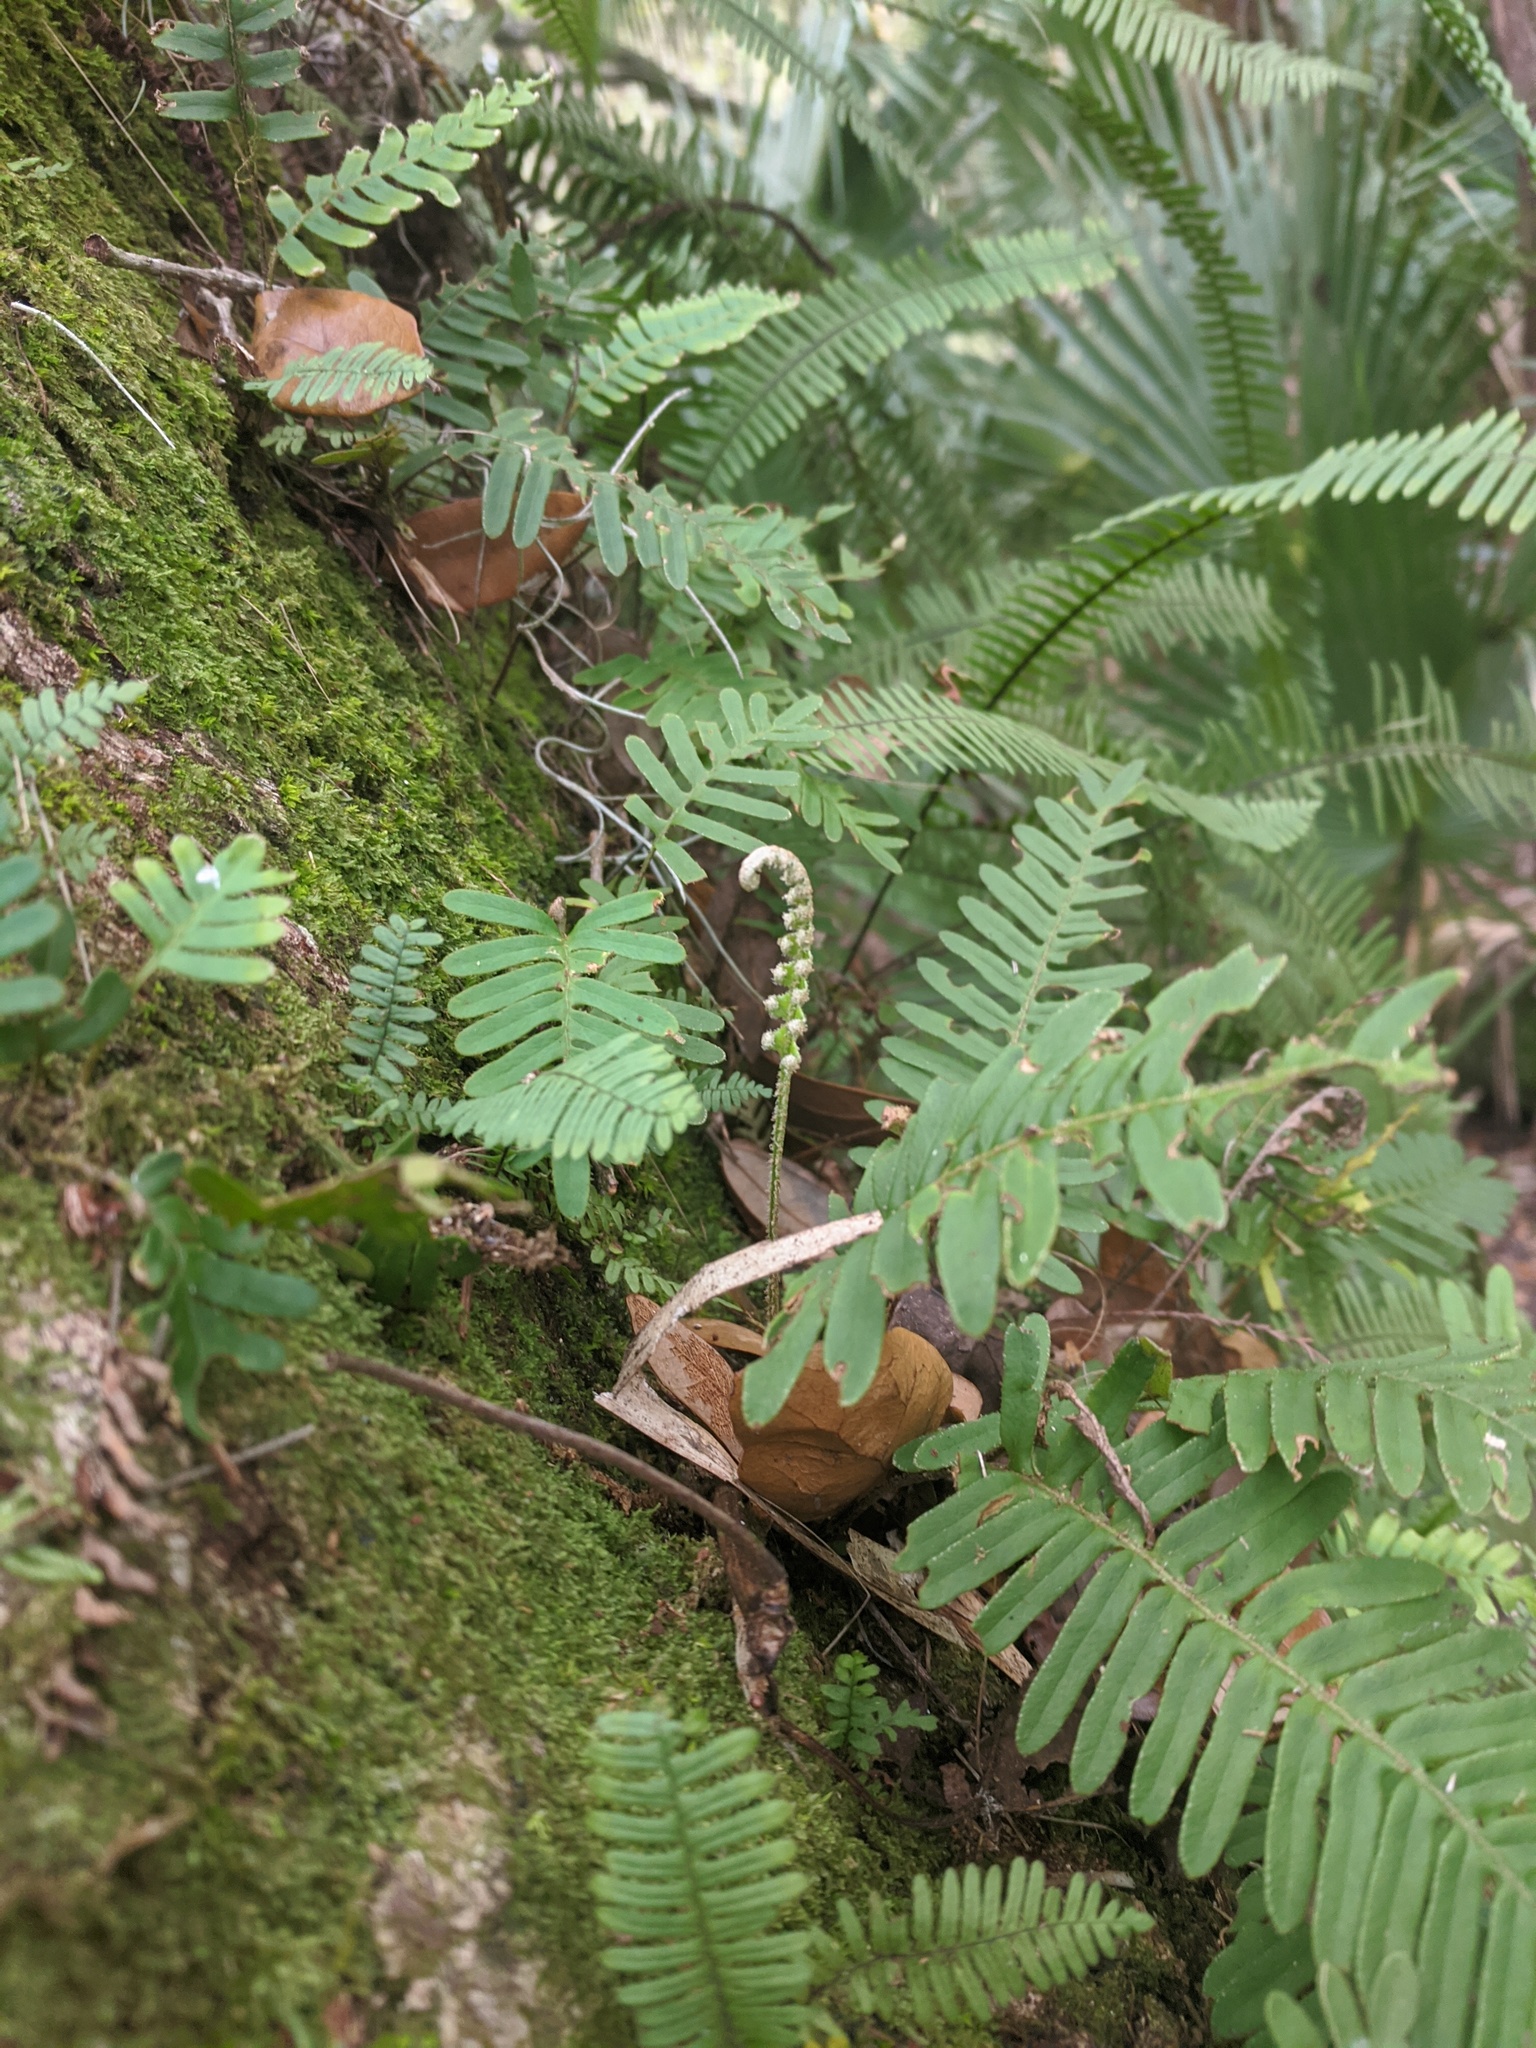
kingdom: Plantae
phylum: Tracheophyta
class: Polypodiopsida
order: Polypodiales
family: Polypodiaceae
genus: Pleopeltis
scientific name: Pleopeltis michauxiana
